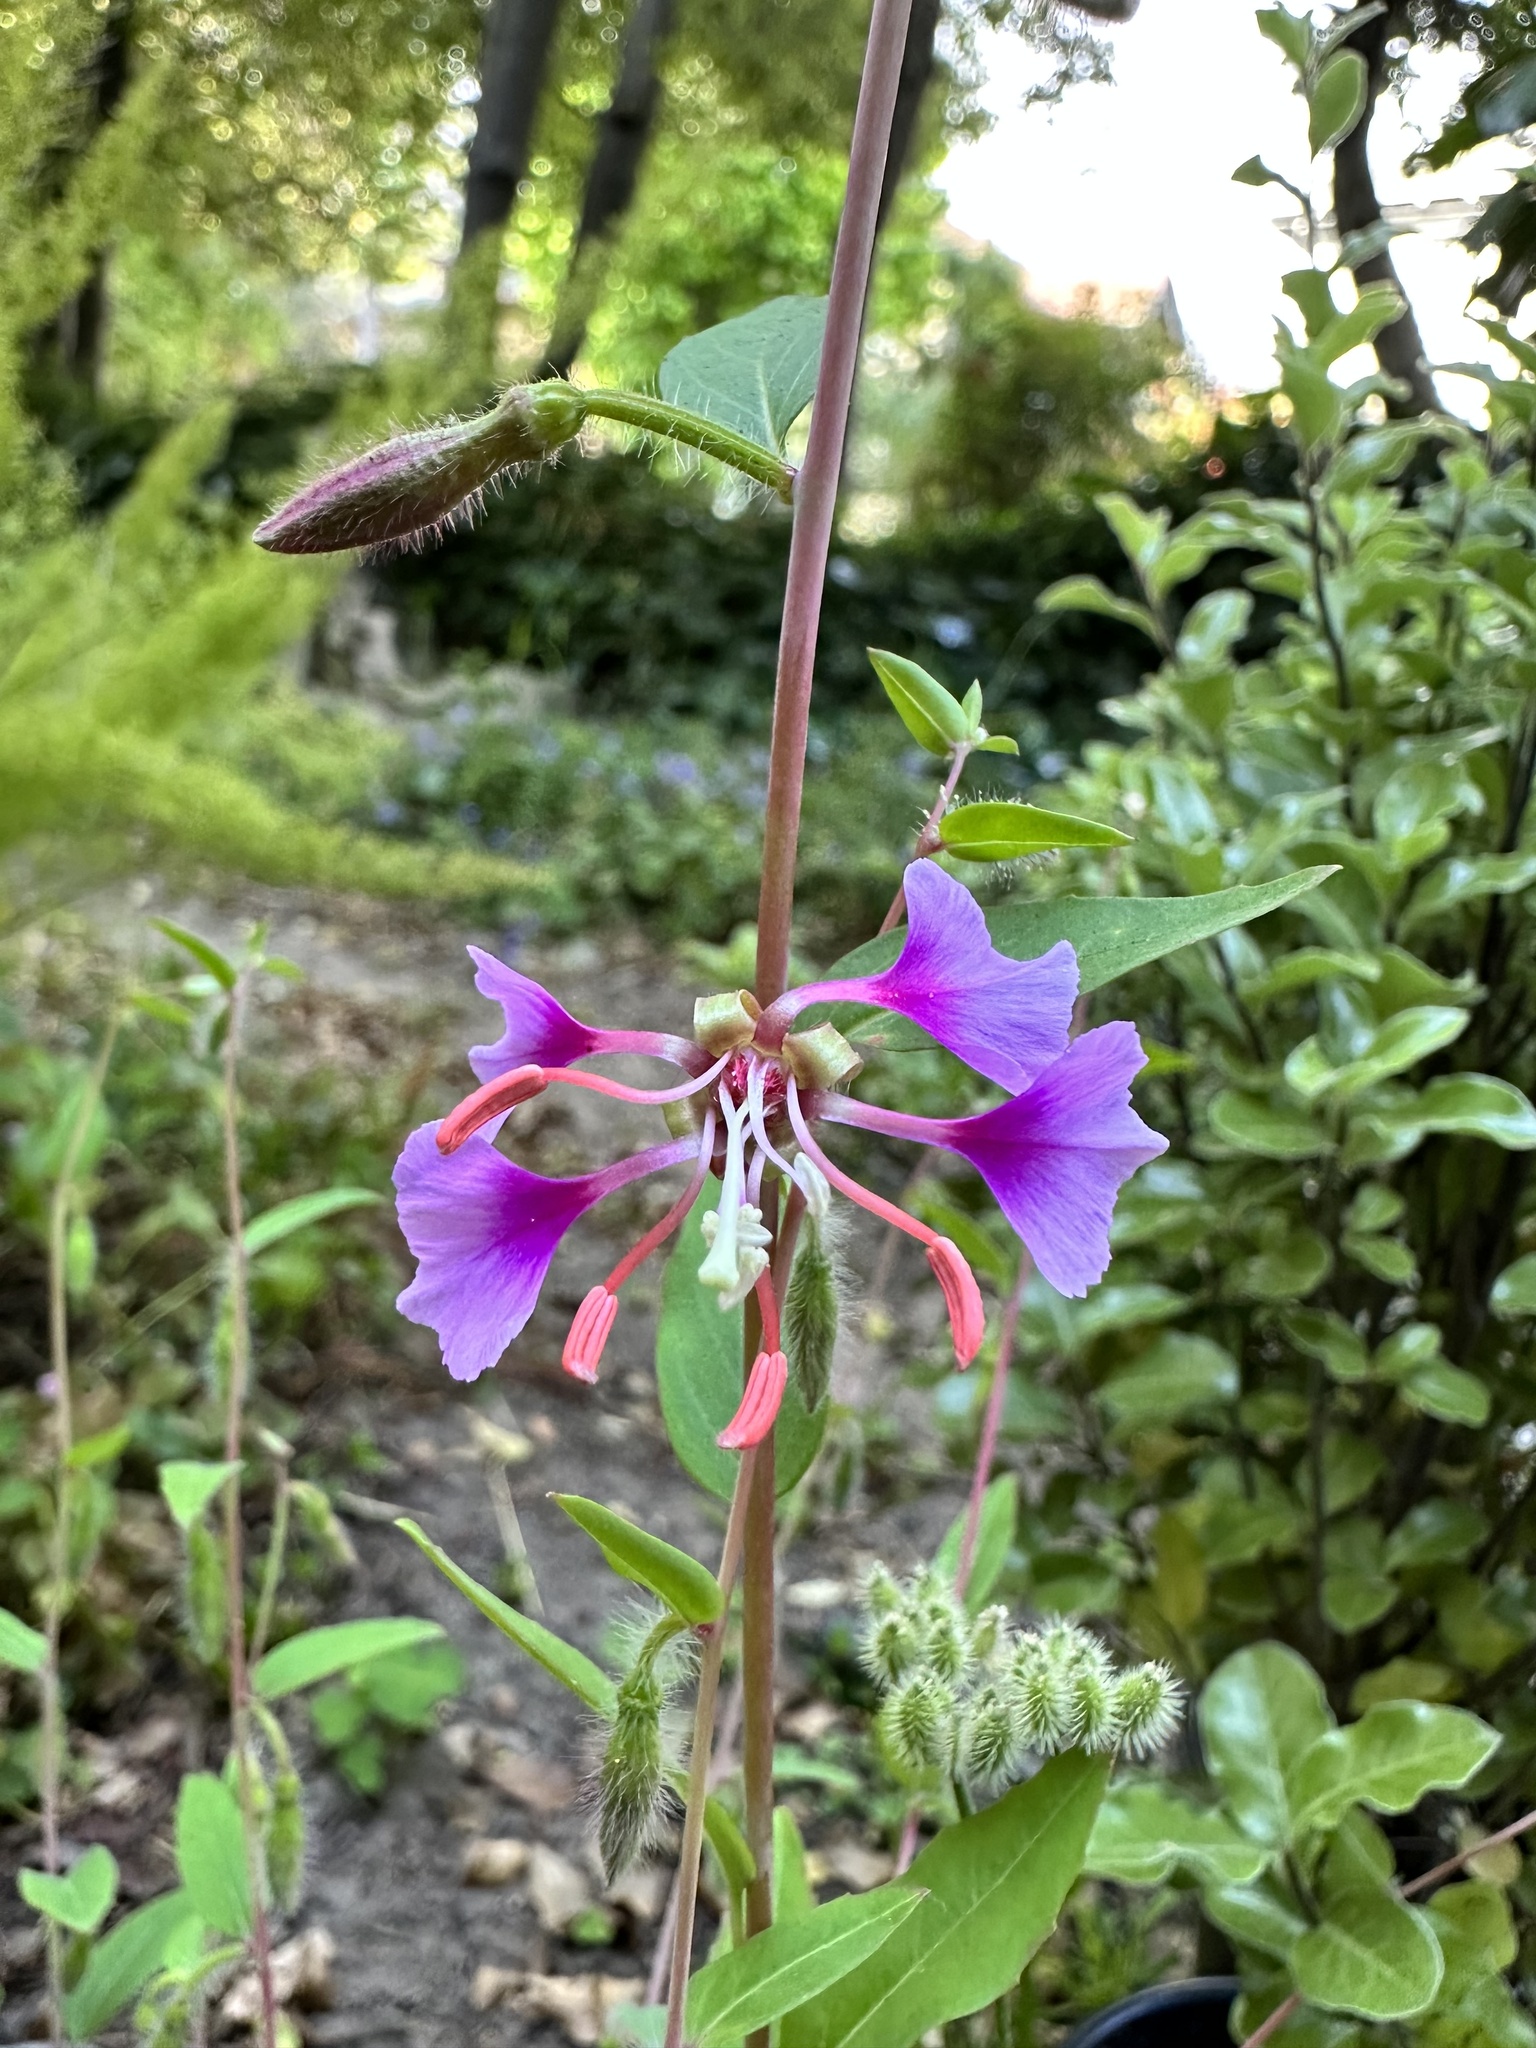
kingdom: Plantae
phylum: Tracheophyta
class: Magnoliopsida
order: Myrtales
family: Onagraceae
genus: Clarkia
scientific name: Clarkia unguiculata
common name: Clarkia
